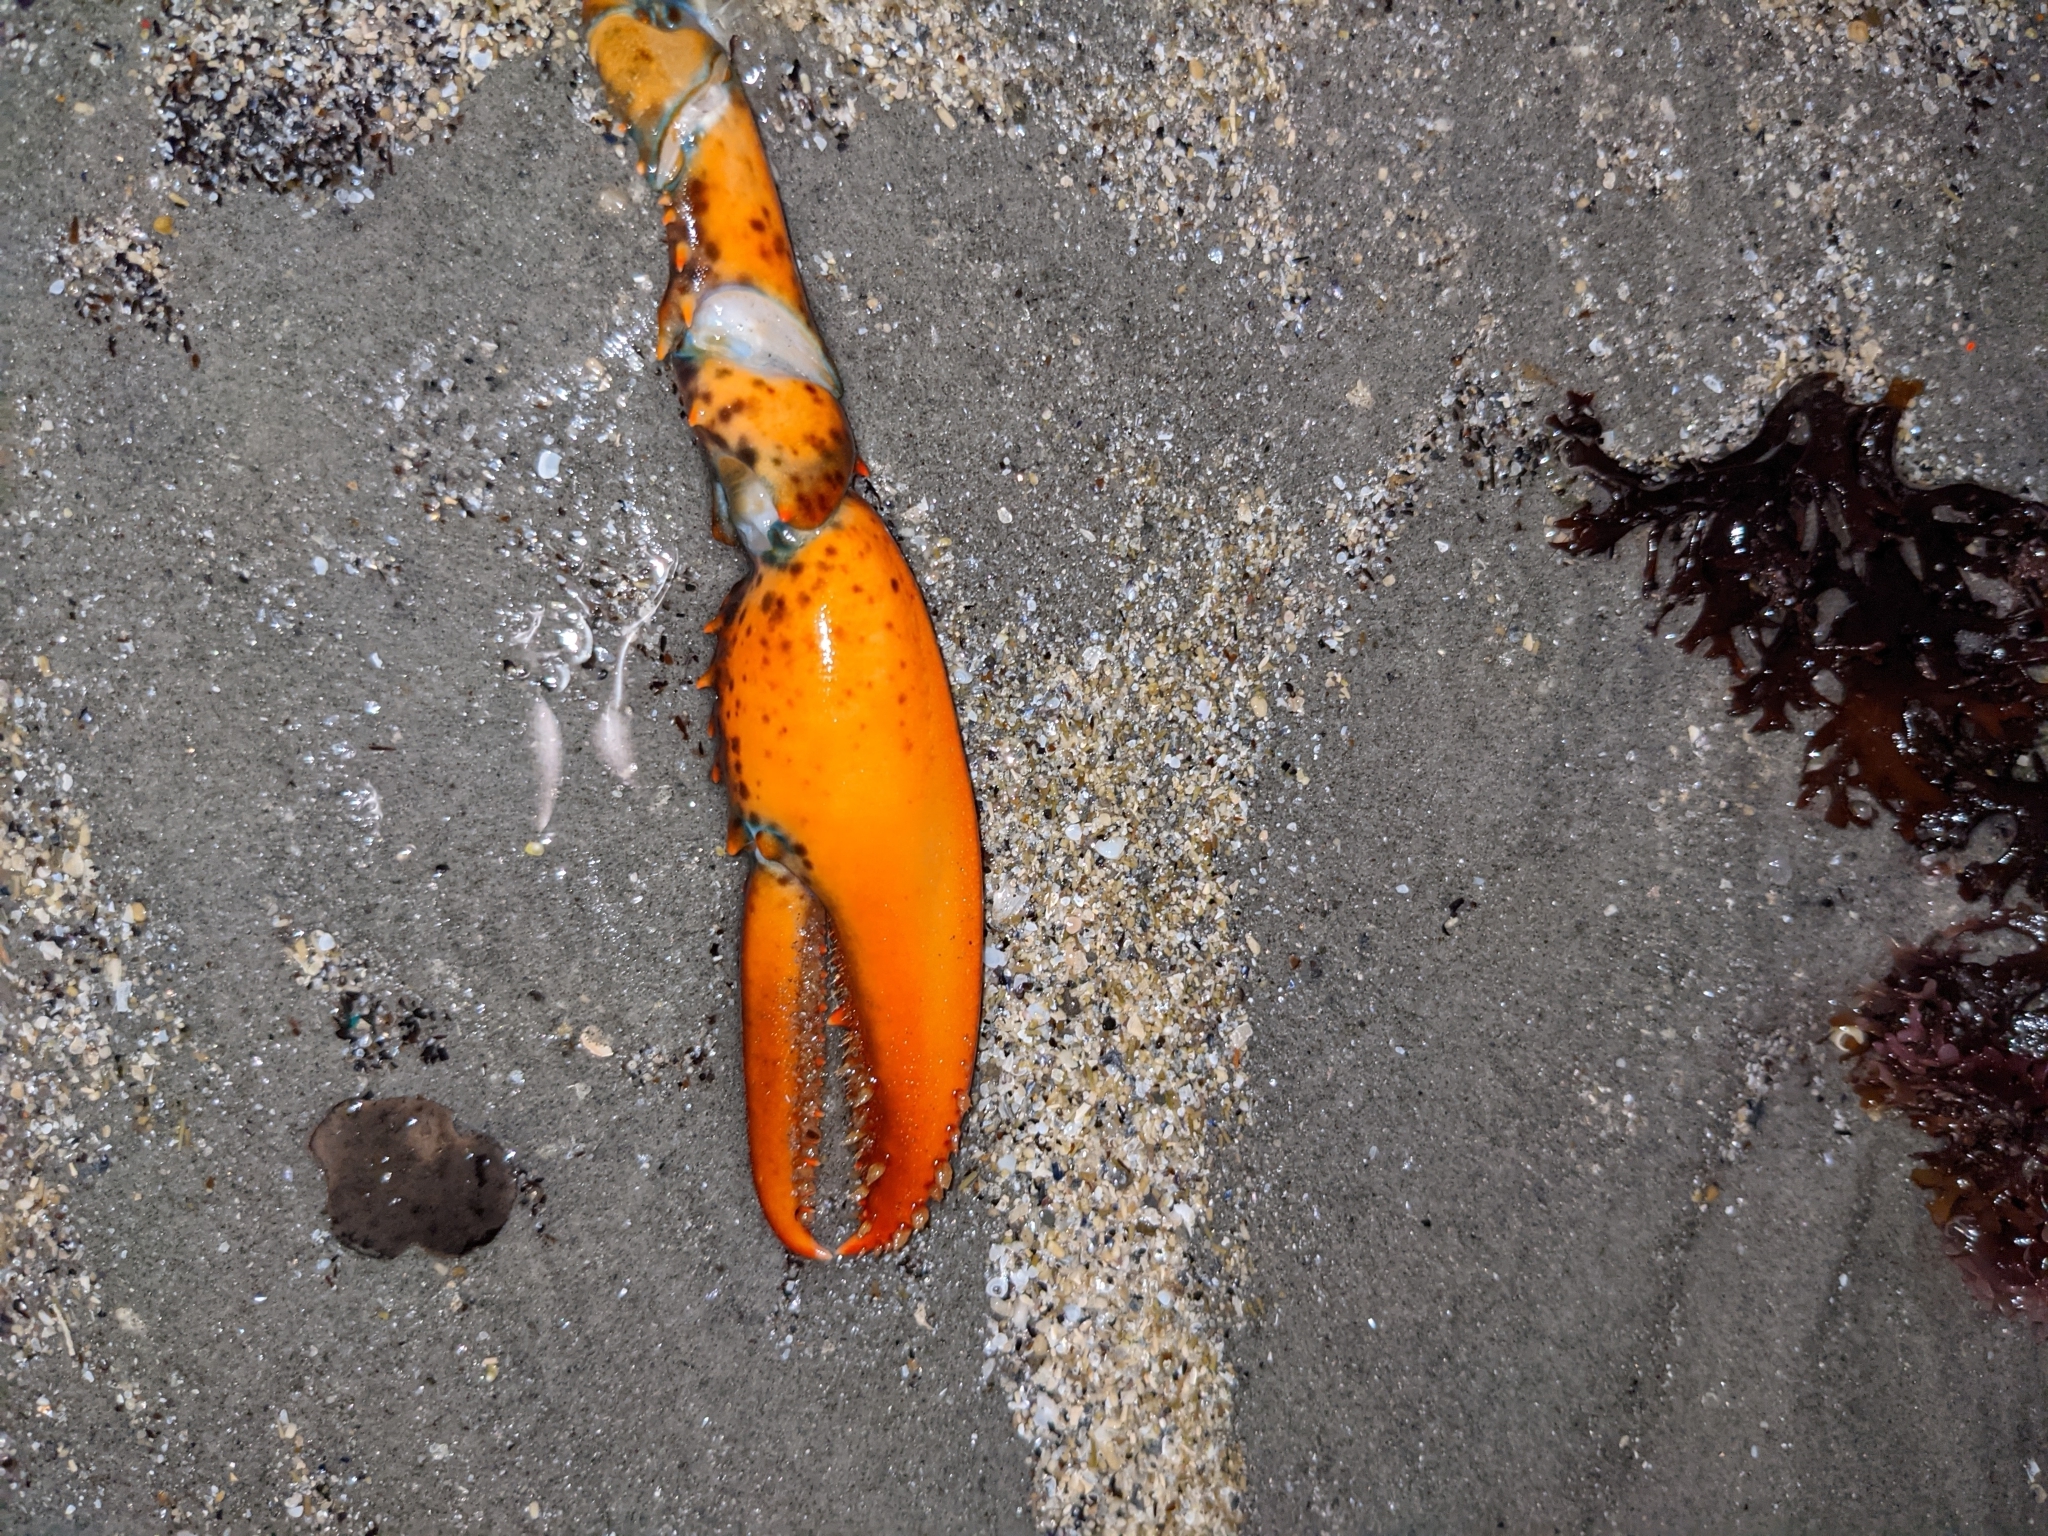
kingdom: Animalia
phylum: Arthropoda
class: Malacostraca
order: Decapoda
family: Nephropidae
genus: Homarus
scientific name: Homarus americanus
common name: American lobster
